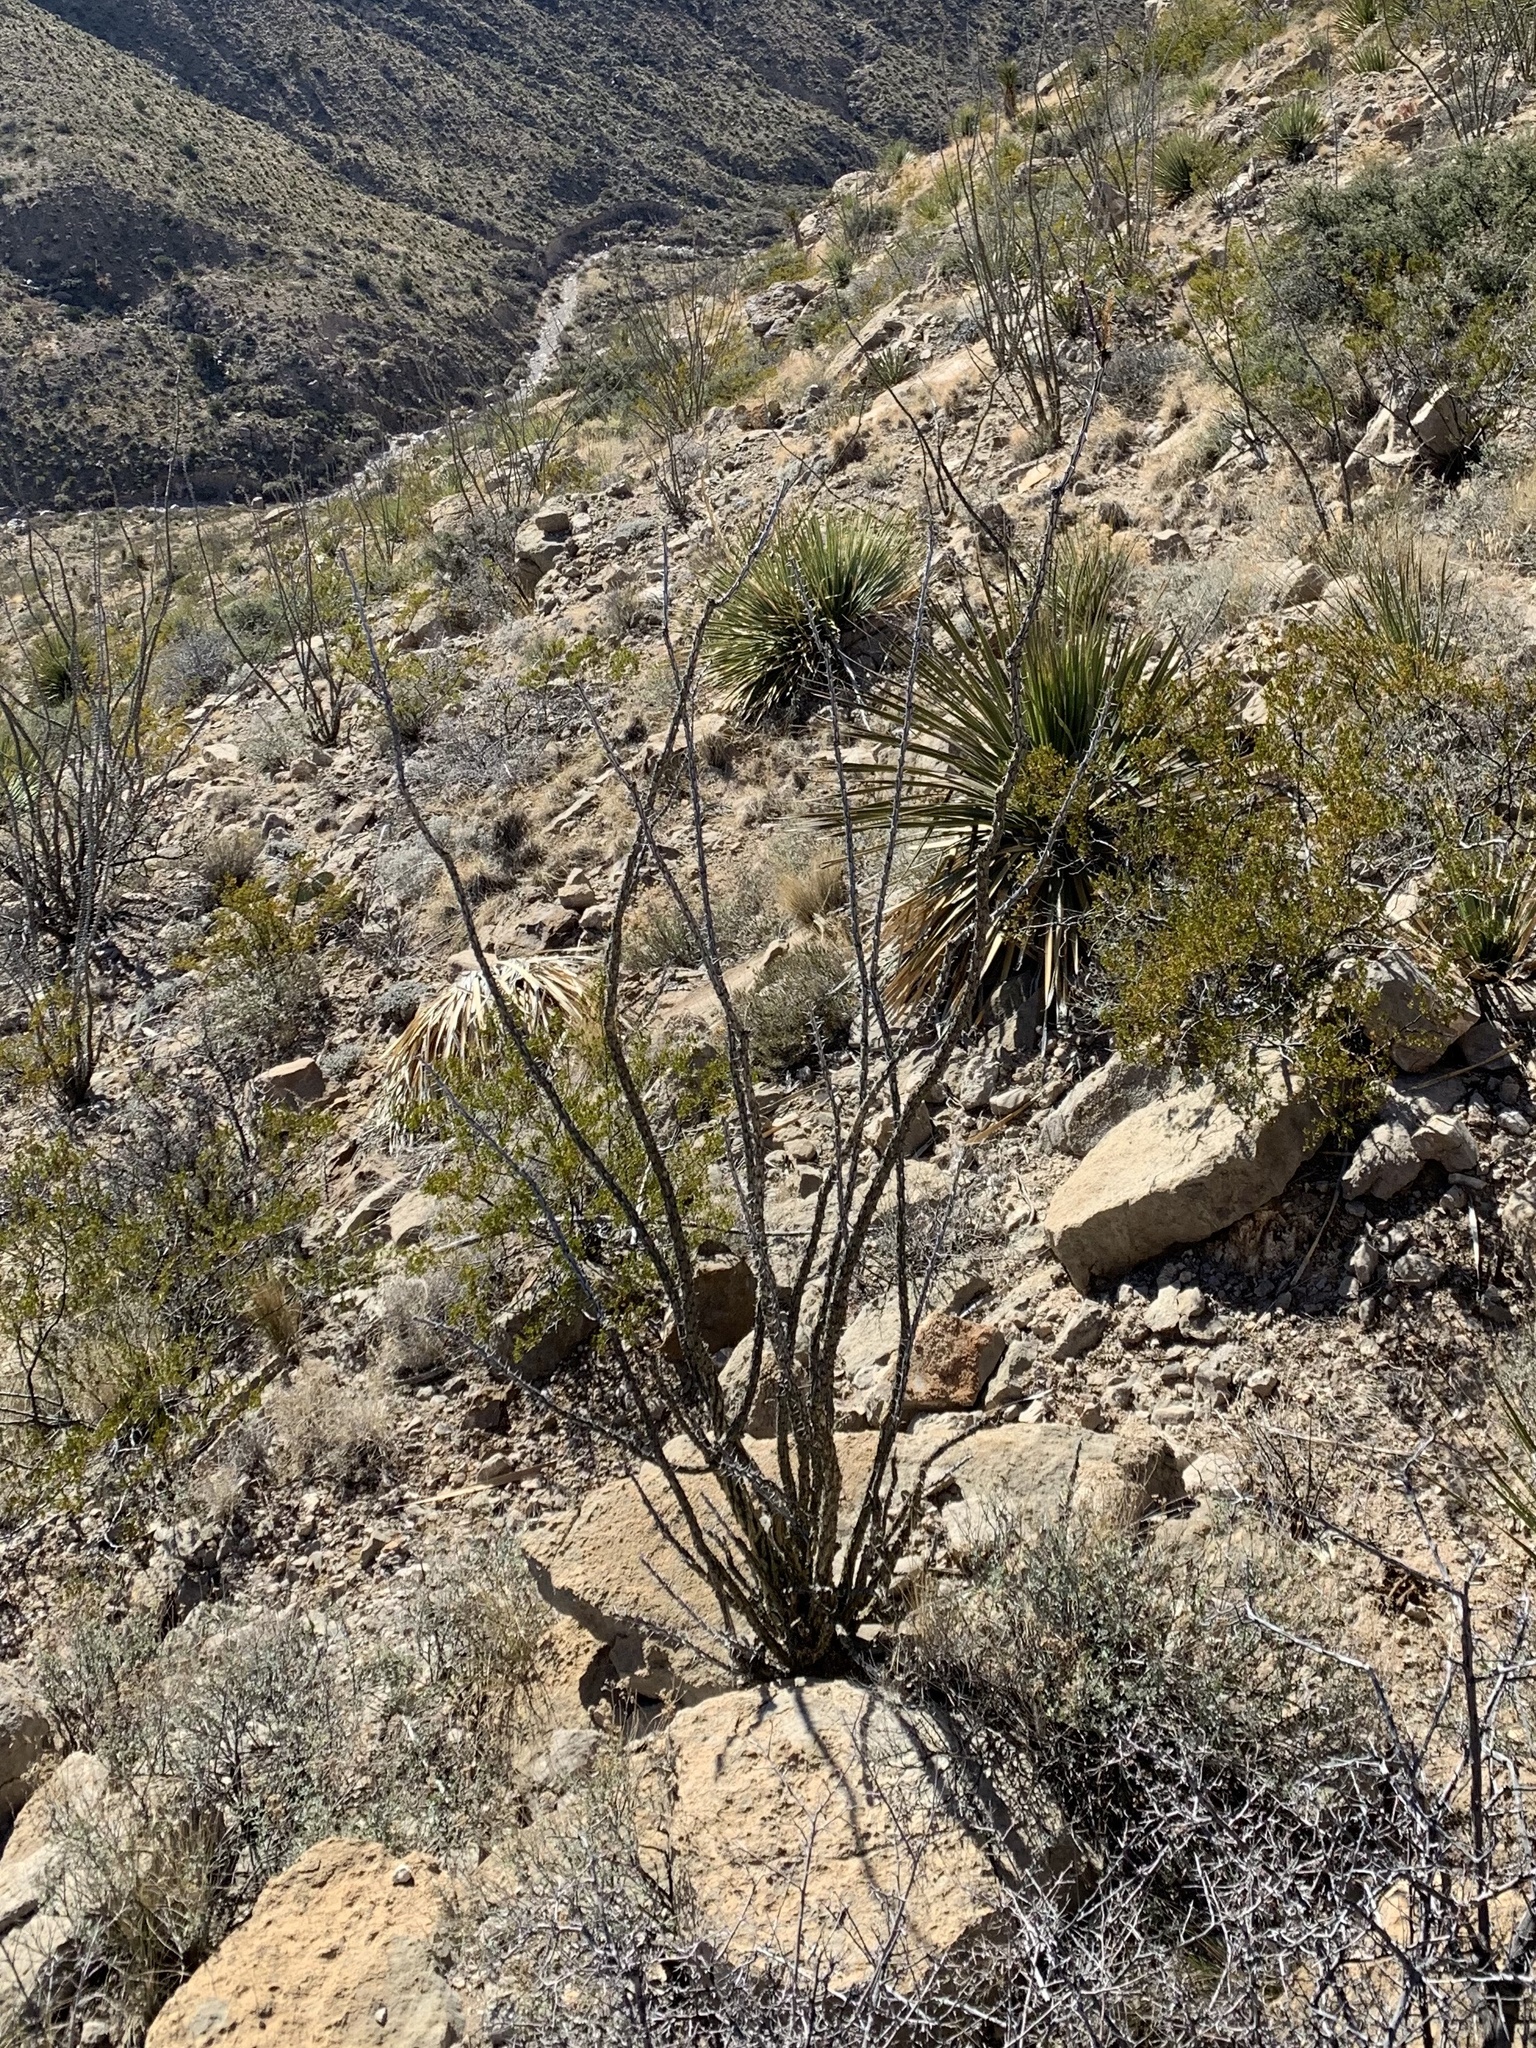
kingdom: Plantae
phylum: Tracheophyta
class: Magnoliopsida
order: Ericales
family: Fouquieriaceae
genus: Fouquieria
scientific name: Fouquieria splendens
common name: Vine-cactus
